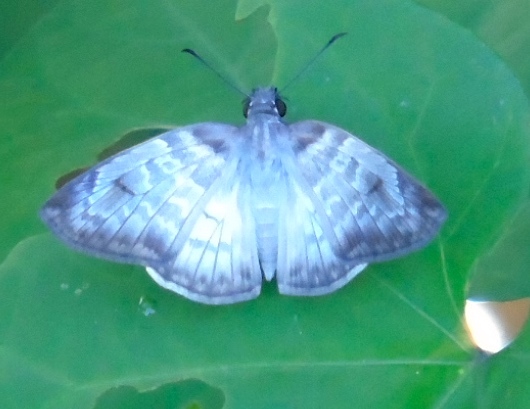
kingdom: Animalia
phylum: Arthropoda
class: Insecta
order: Lepidoptera
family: Hesperiidae
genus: Mylon
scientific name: Mylon pelopidas
